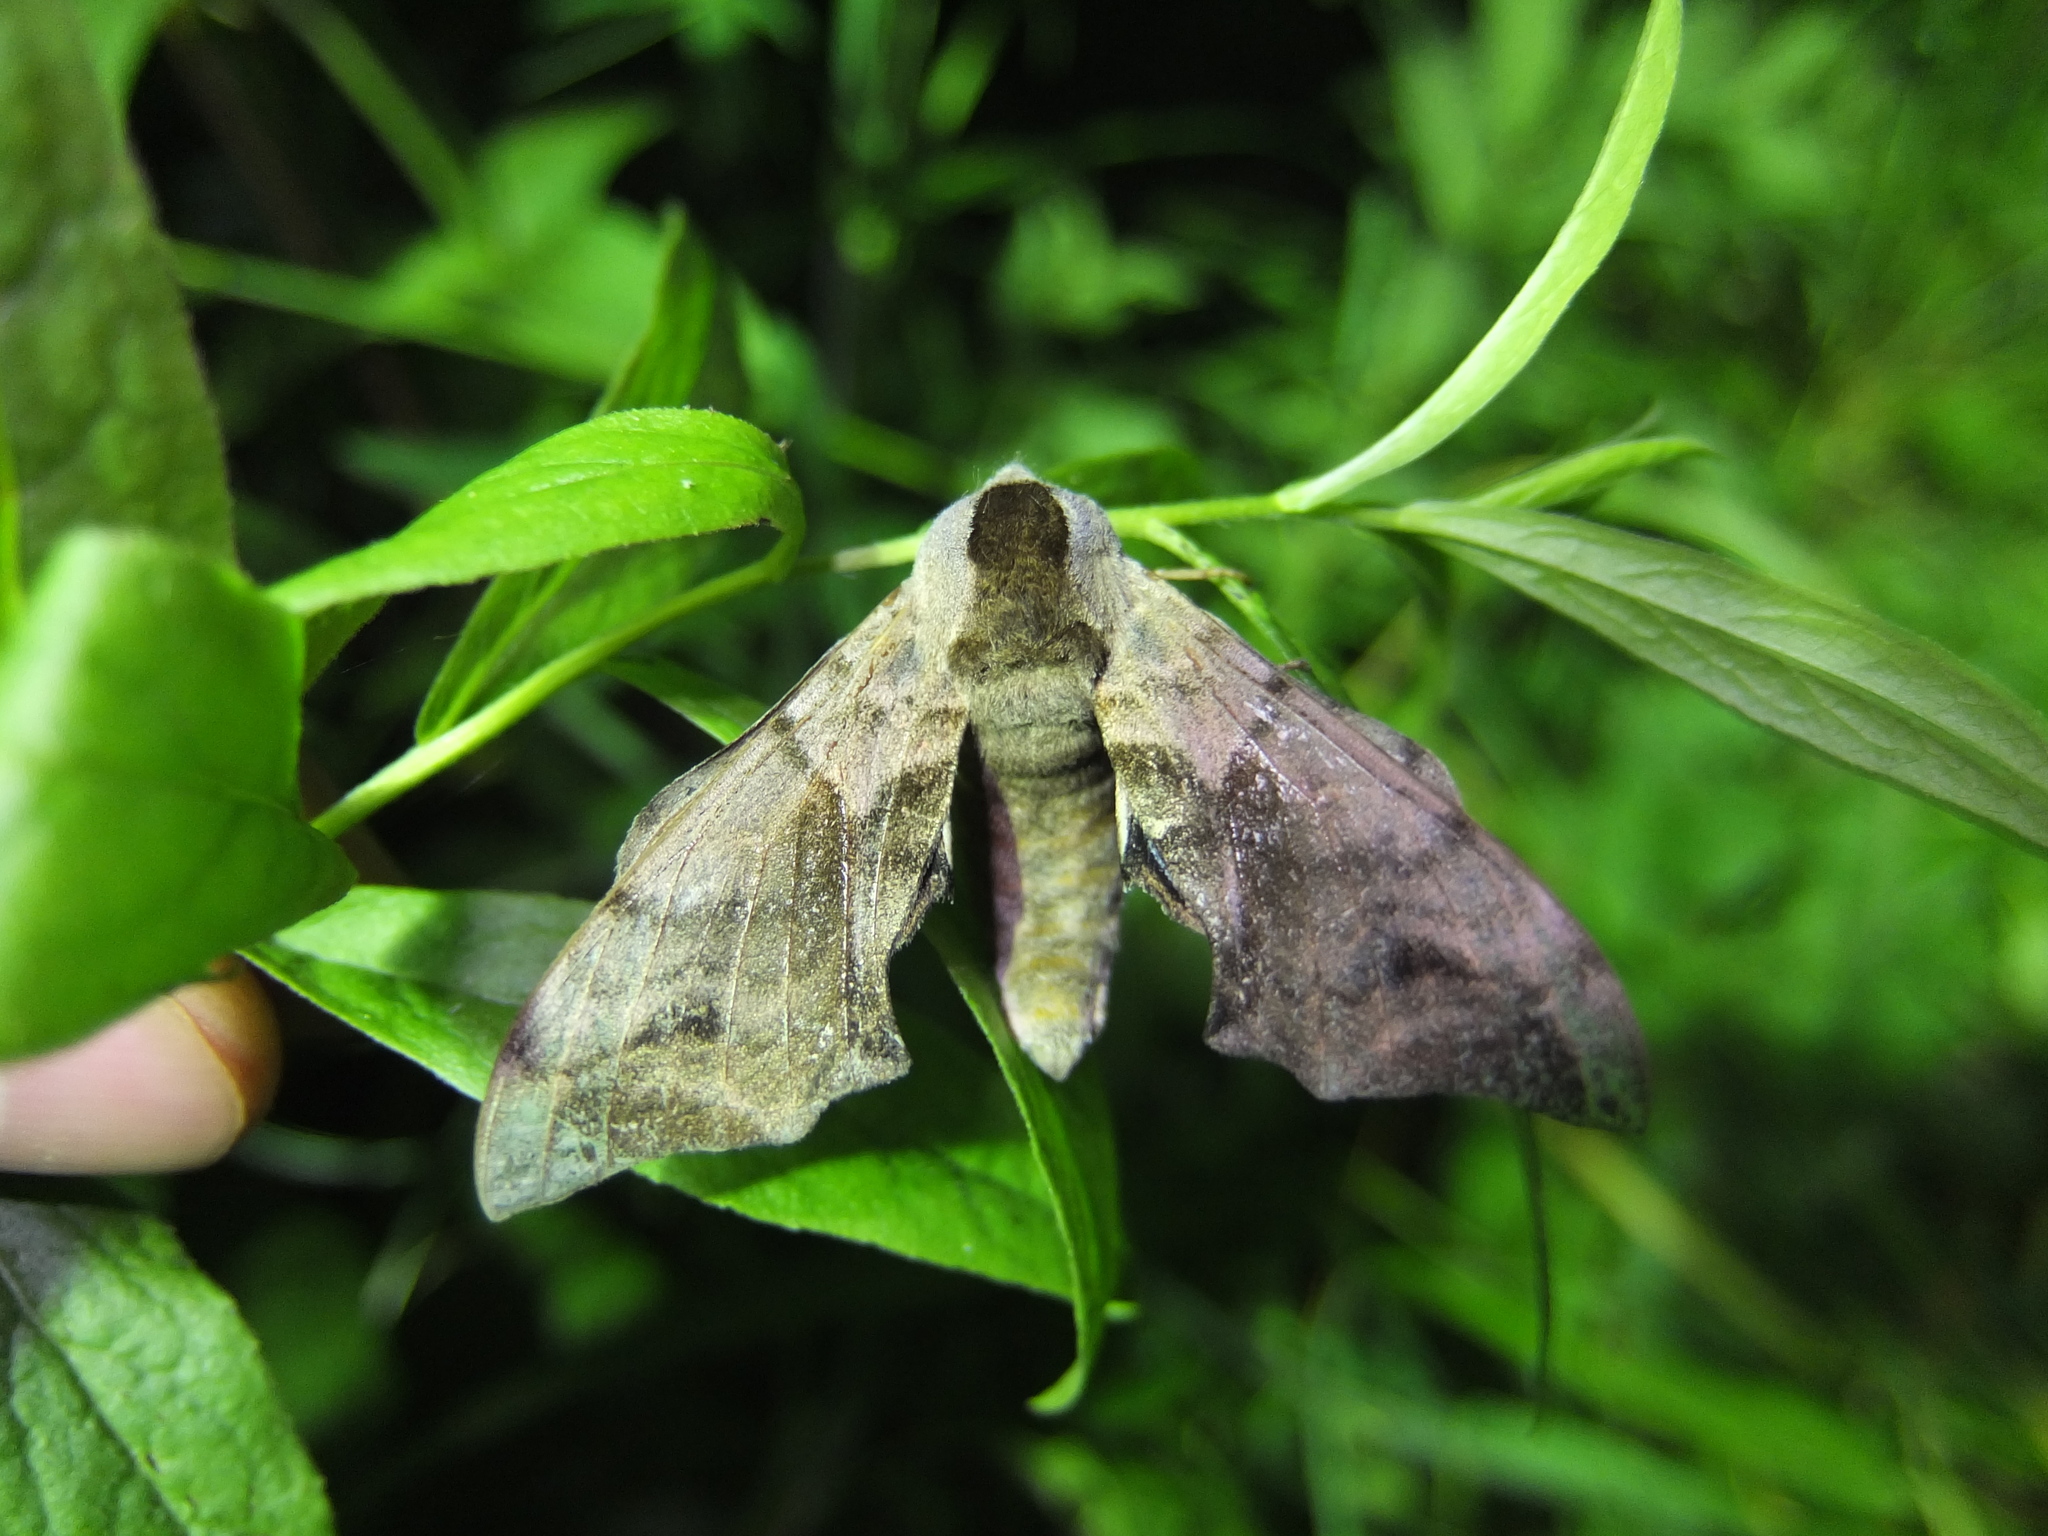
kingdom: Animalia
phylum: Arthropoda
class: Insecta
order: Lepidoptera
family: Sphingidae
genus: Smerinthus
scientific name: Smerinthus ocellata
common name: Eyed hawk-moth
